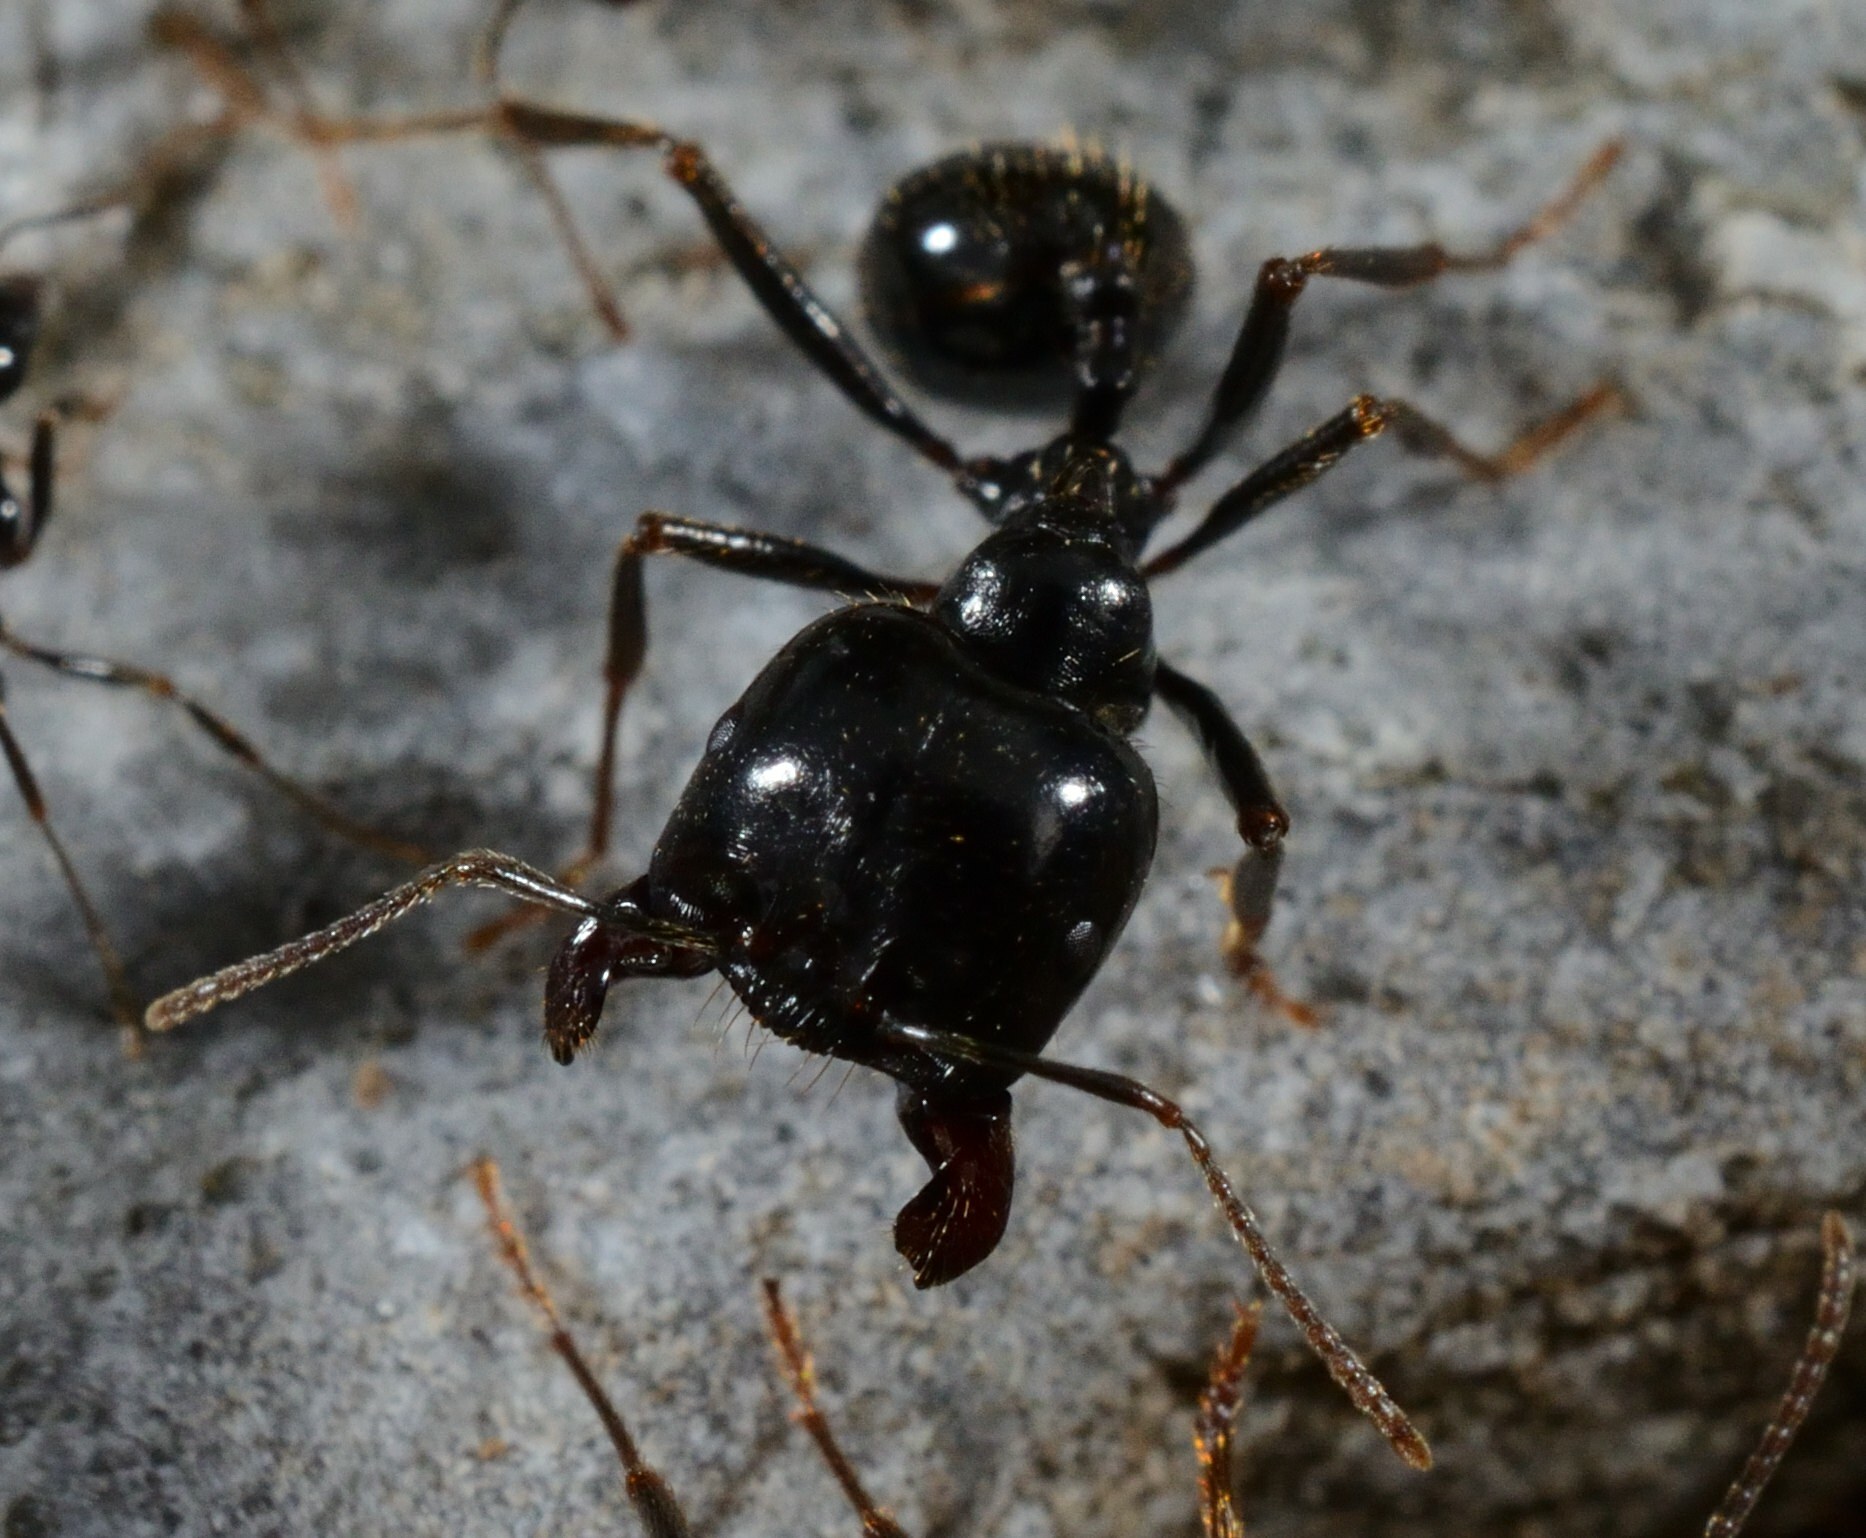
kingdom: Animalia
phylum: Arthropoda
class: Insecta
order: Hymenoptera
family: Formicidae
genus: Messor
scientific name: Messor capitatus
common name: European seed harvesting ant
